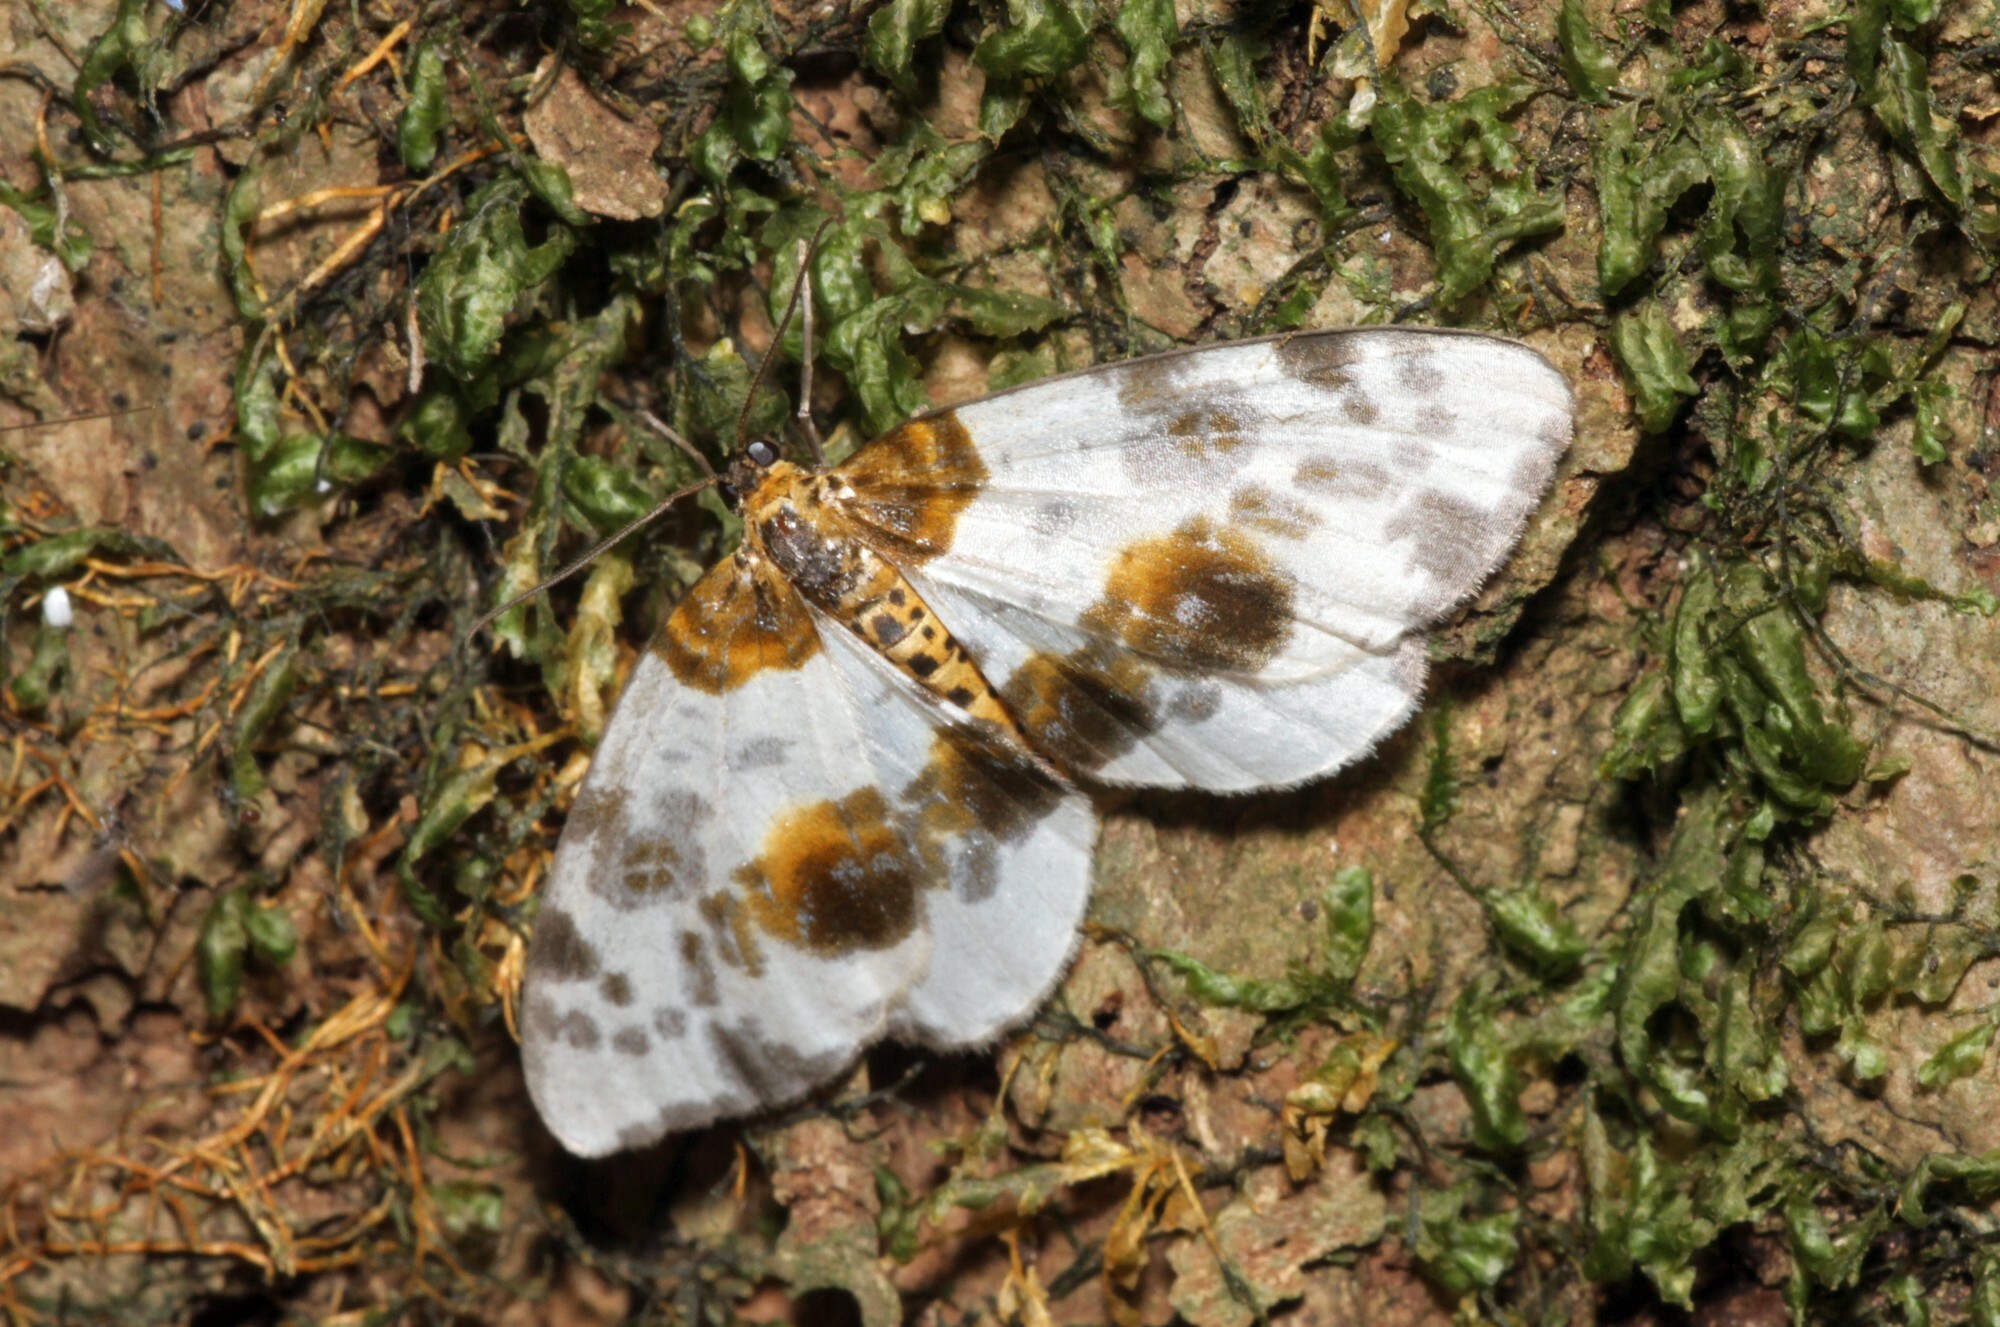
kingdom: Animalia
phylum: Arthropoda
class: Insecta
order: Lepidoptera
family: Geometridae
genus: Abraxas
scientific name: Abraxas sylvata
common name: Clouded magpie
